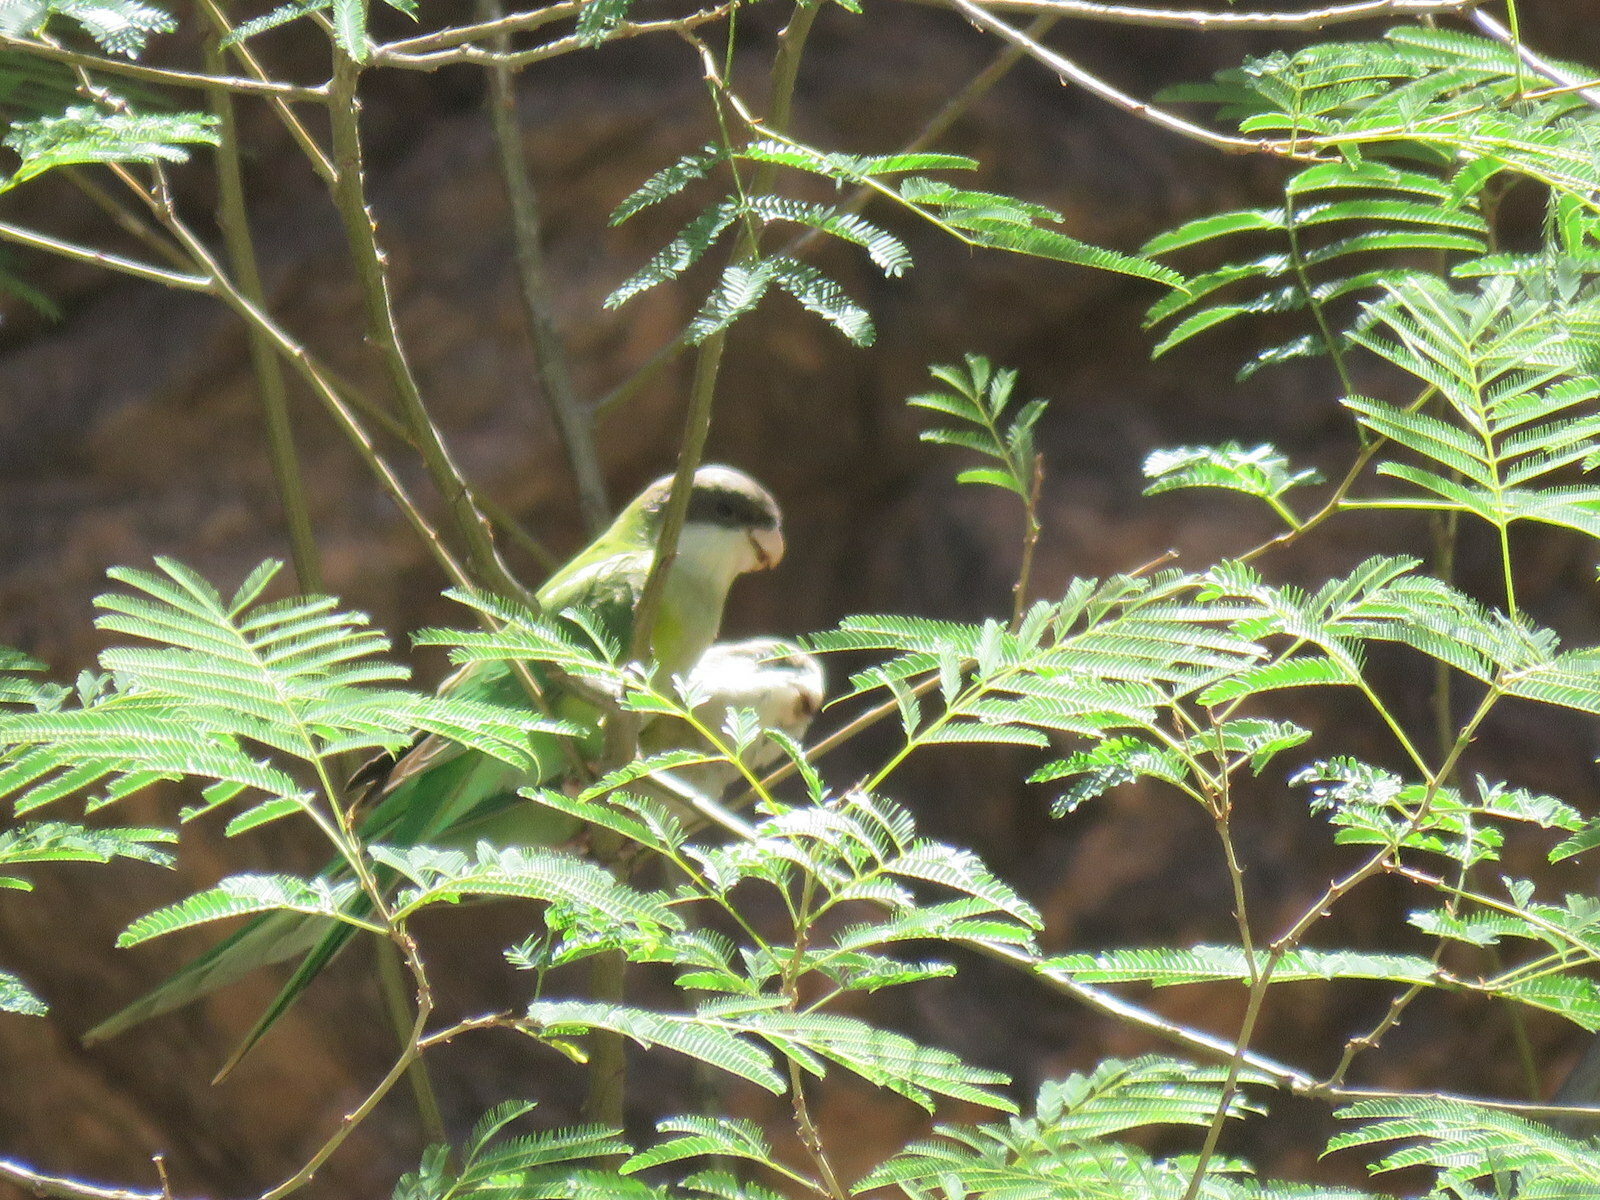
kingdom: Animalia
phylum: Chordata
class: Aves
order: Psittaciformes
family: Psittacidae
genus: Psilopsiagon
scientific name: Psilopsiagon aymara
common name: Grey-hooded parakeet
